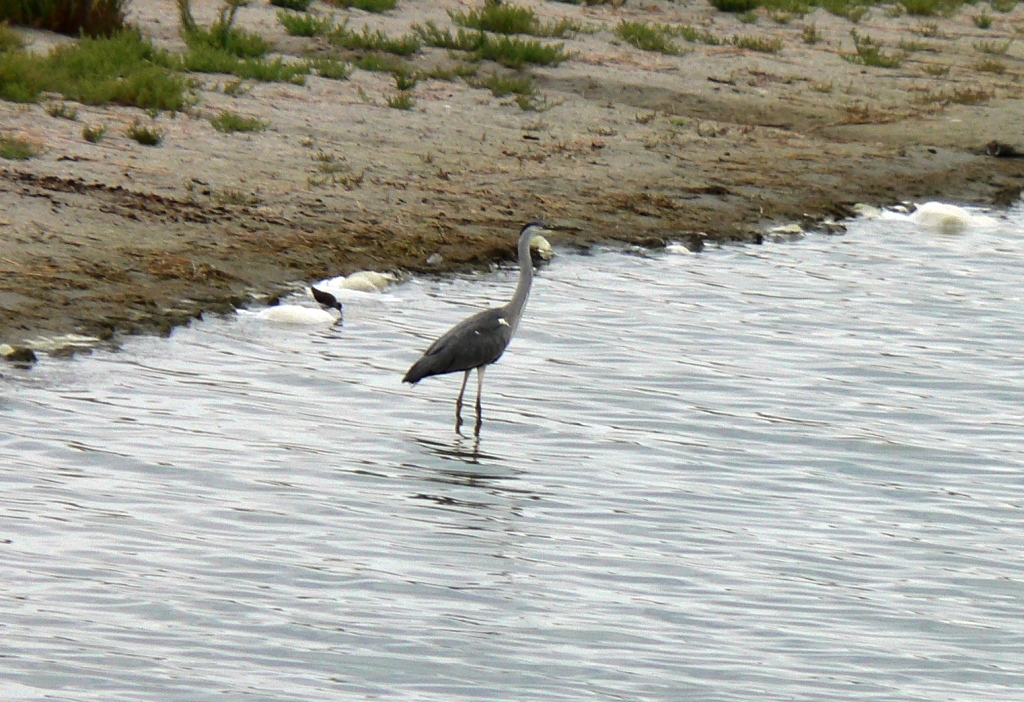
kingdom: Animalia
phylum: Chordata
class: Aves
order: Pelecaniformes
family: Ardeidae
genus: Ardea
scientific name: Ardea cinerea
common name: Grey heron
